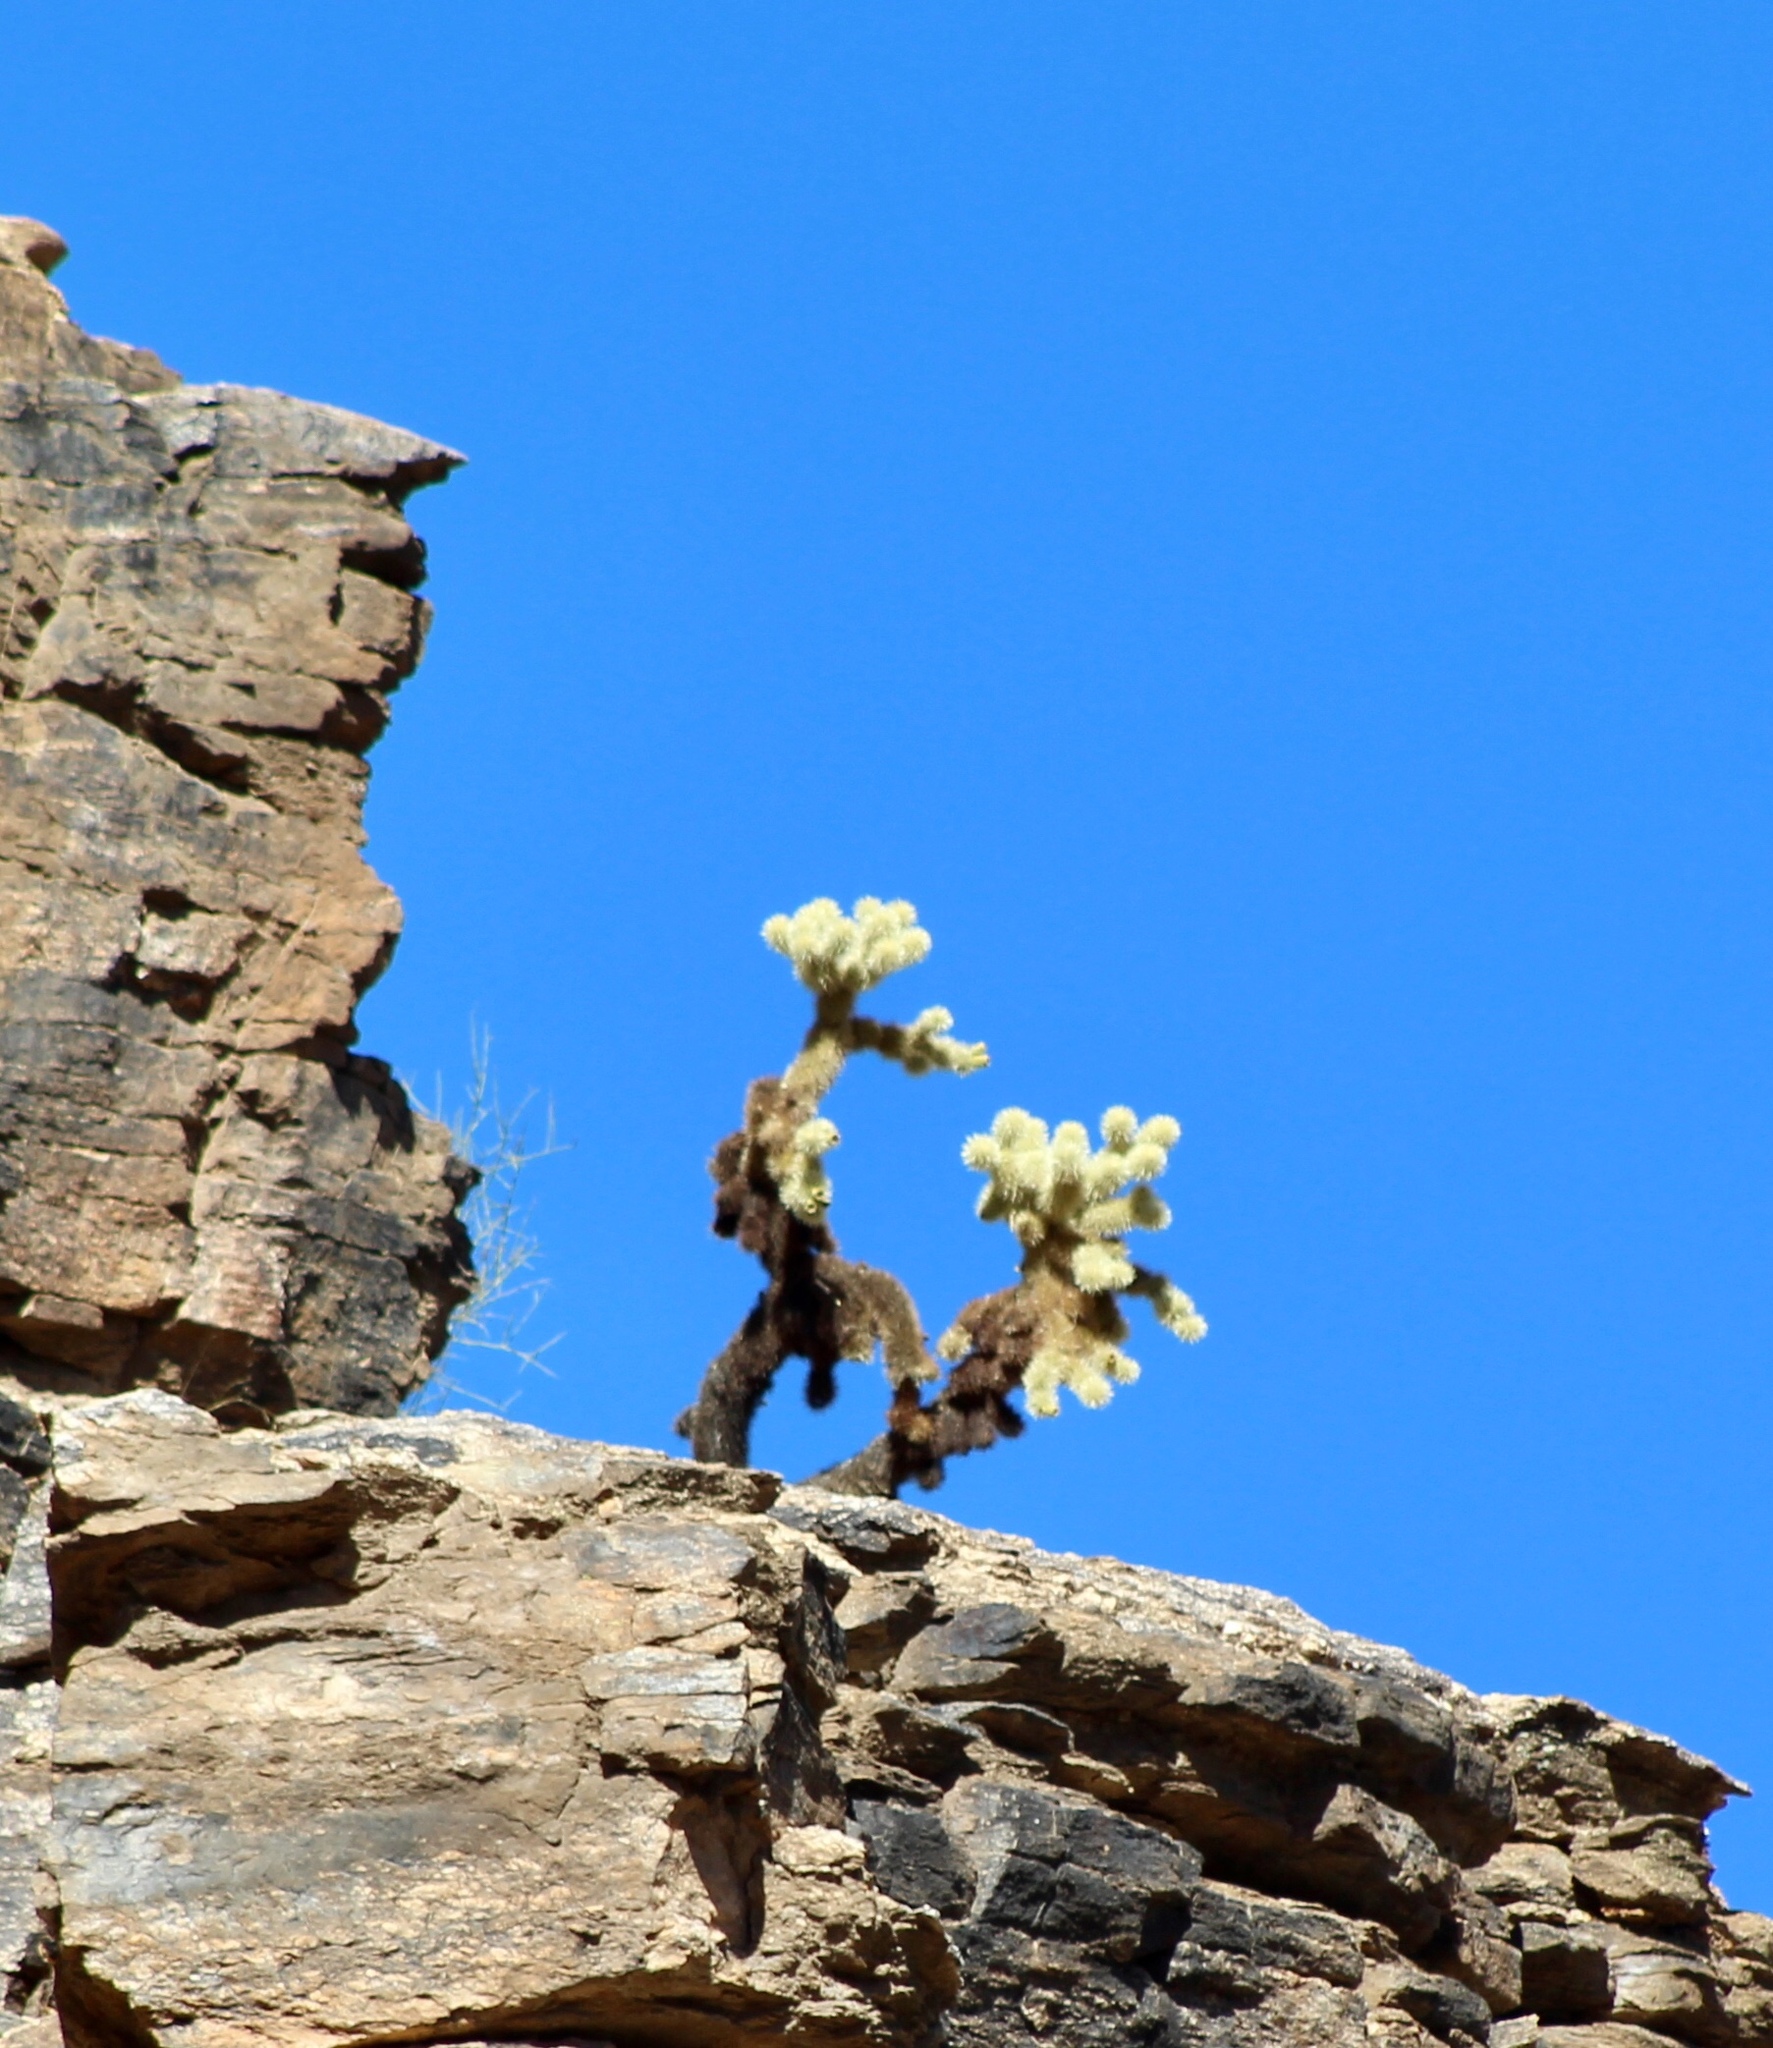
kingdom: Plantae
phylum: Tracheophyta
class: Magnoliopsida
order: Caryophyllales
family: Cactaceae
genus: Cylindropuntia
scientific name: Cylindropuntia fosbergii
